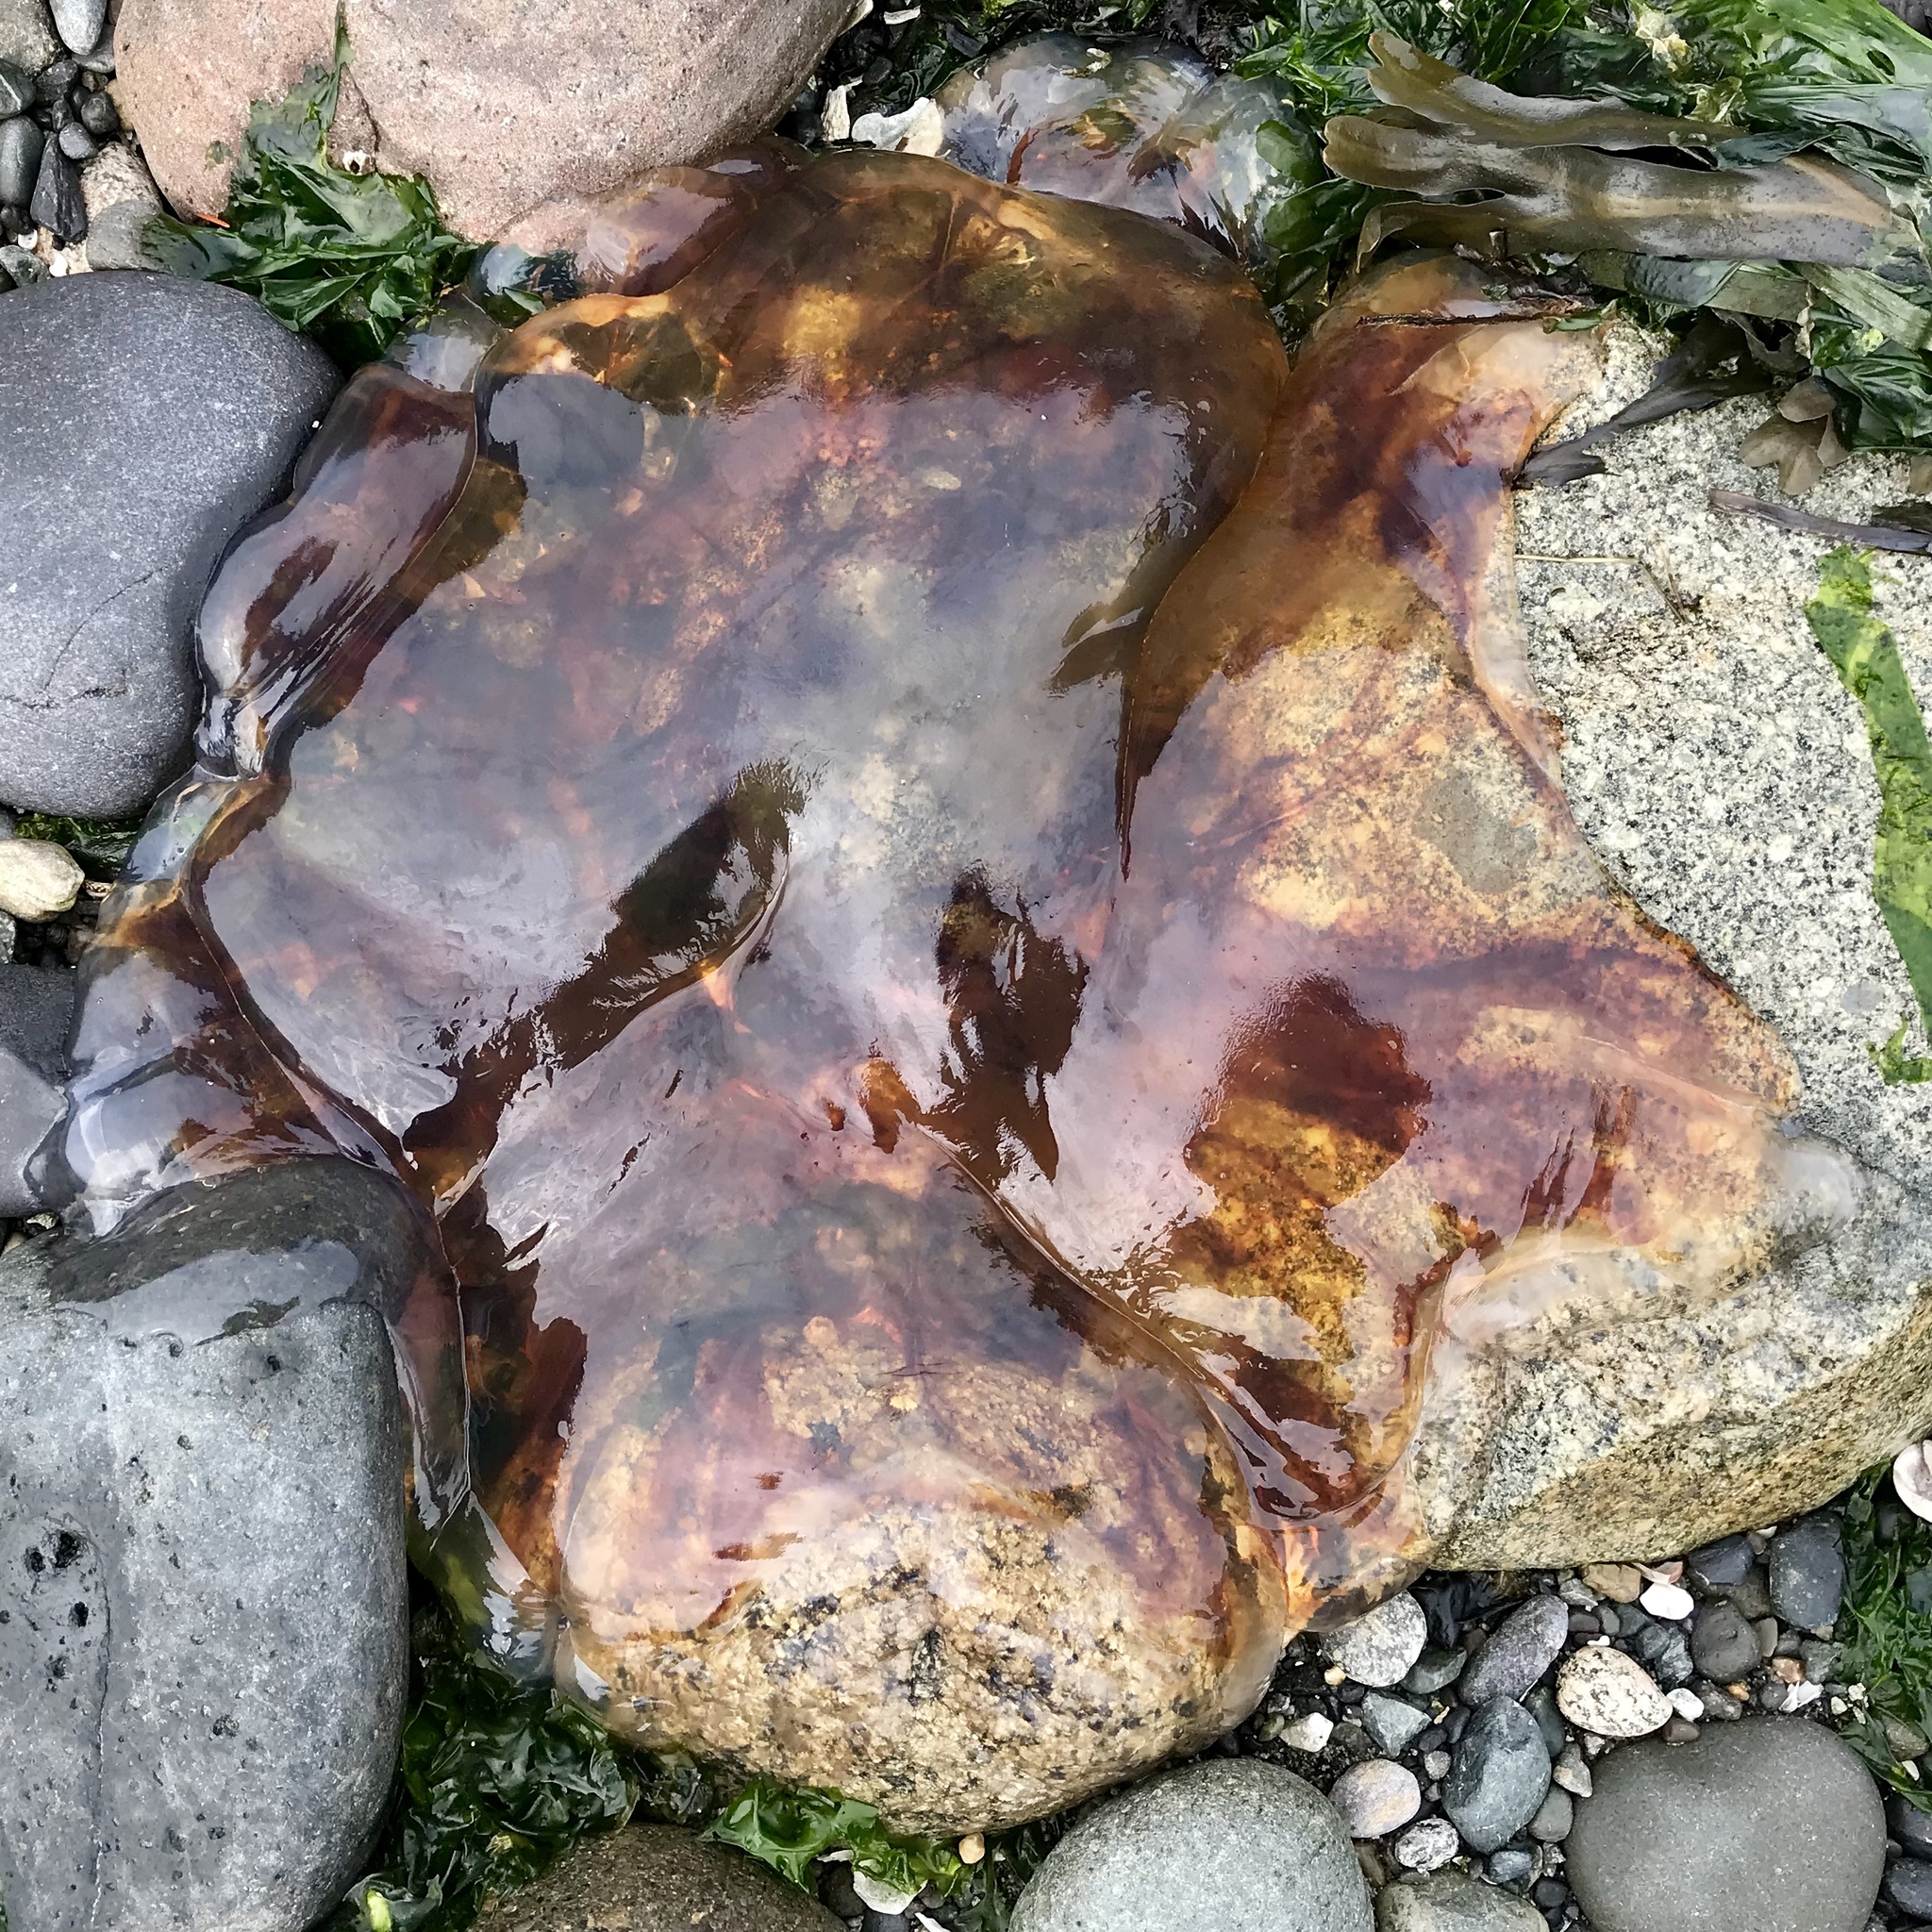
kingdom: Animalia
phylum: Cnidaria
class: Scyphozoa
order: Semaeostomeae
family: Cyaneidae
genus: Cyanea
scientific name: Cyanea ferruginea
